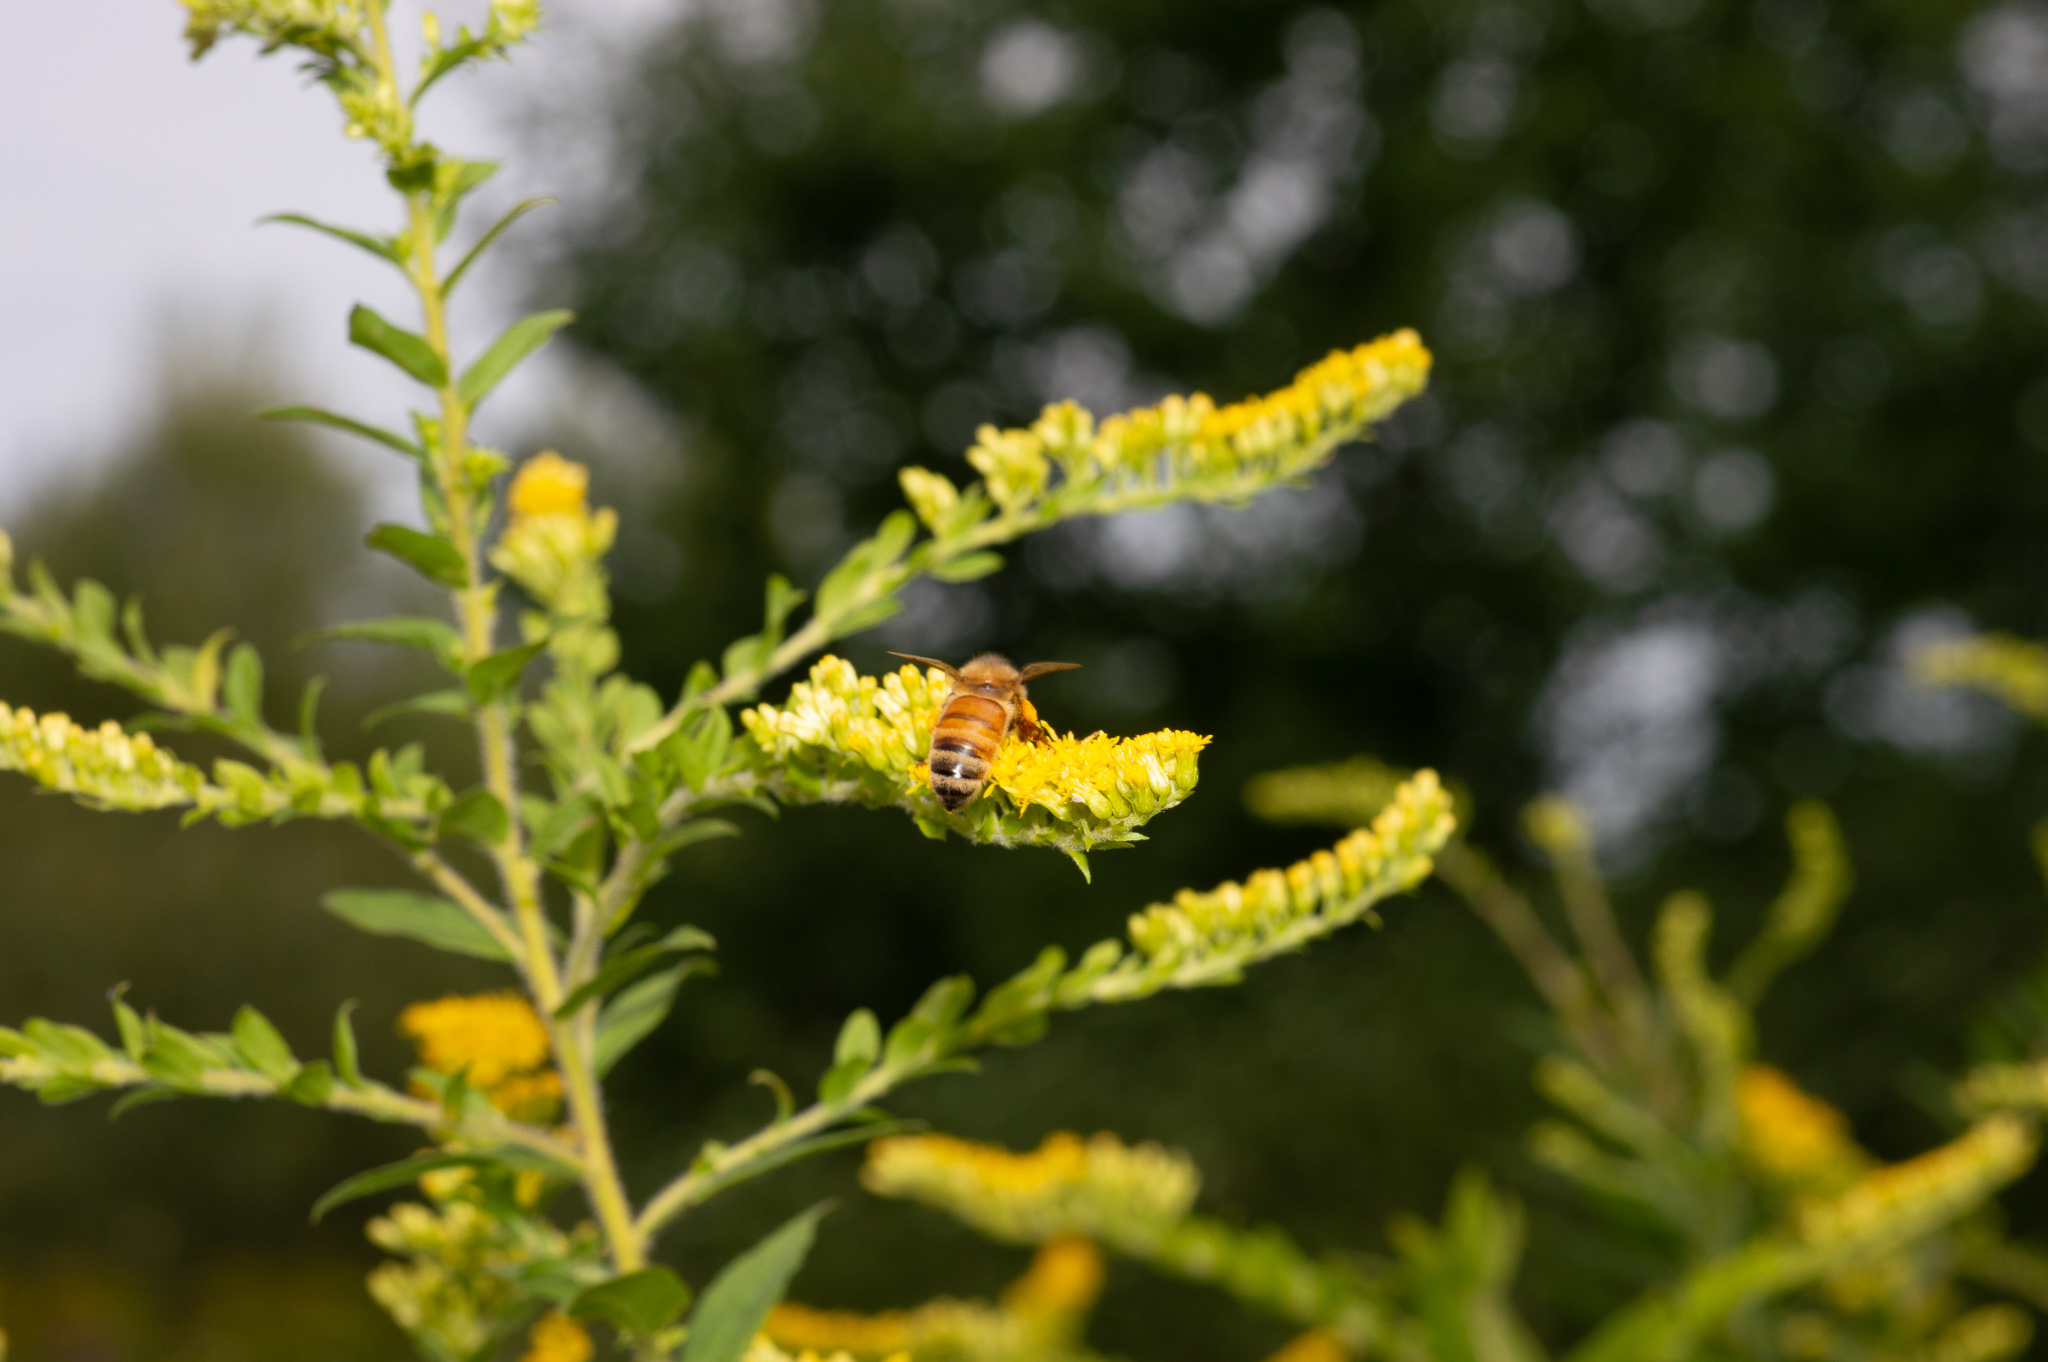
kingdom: Animalia
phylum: Arthropoda
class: Insecta
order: Hymenoptera
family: Apidae
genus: Apis
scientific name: Apis mellifera
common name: Honey bee
